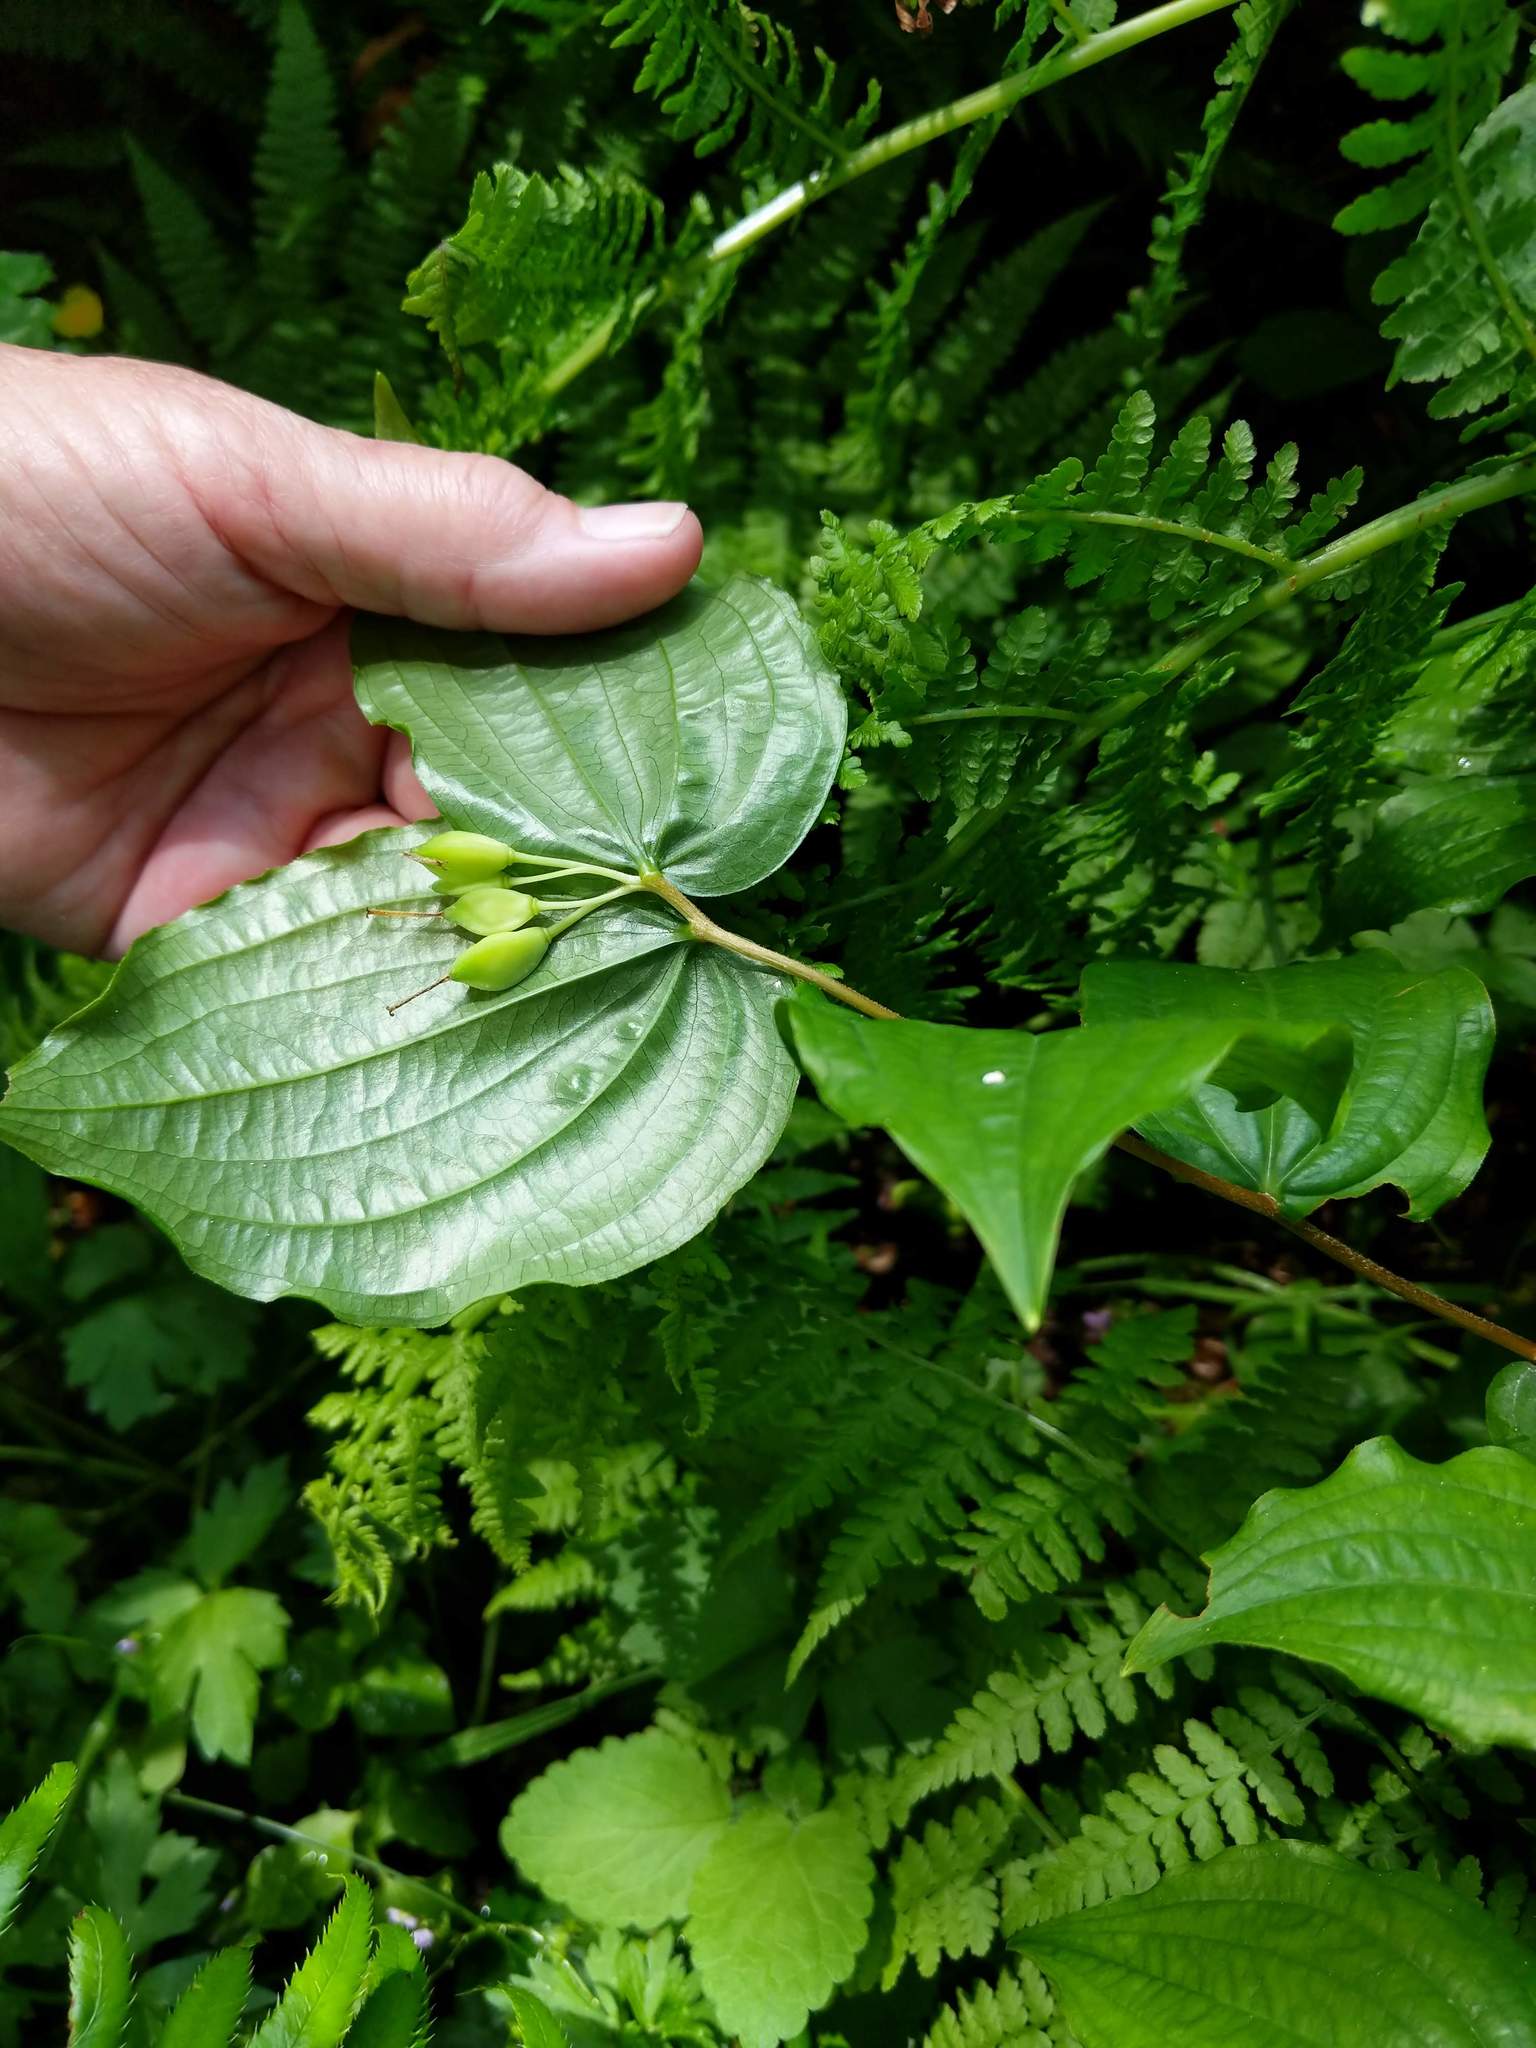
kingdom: Plantae
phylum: Tracheophyta
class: Liliopsida
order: Liliales
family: Liliaceae
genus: Prosartes
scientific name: Prosartes smithii
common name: Fairy-lantern
